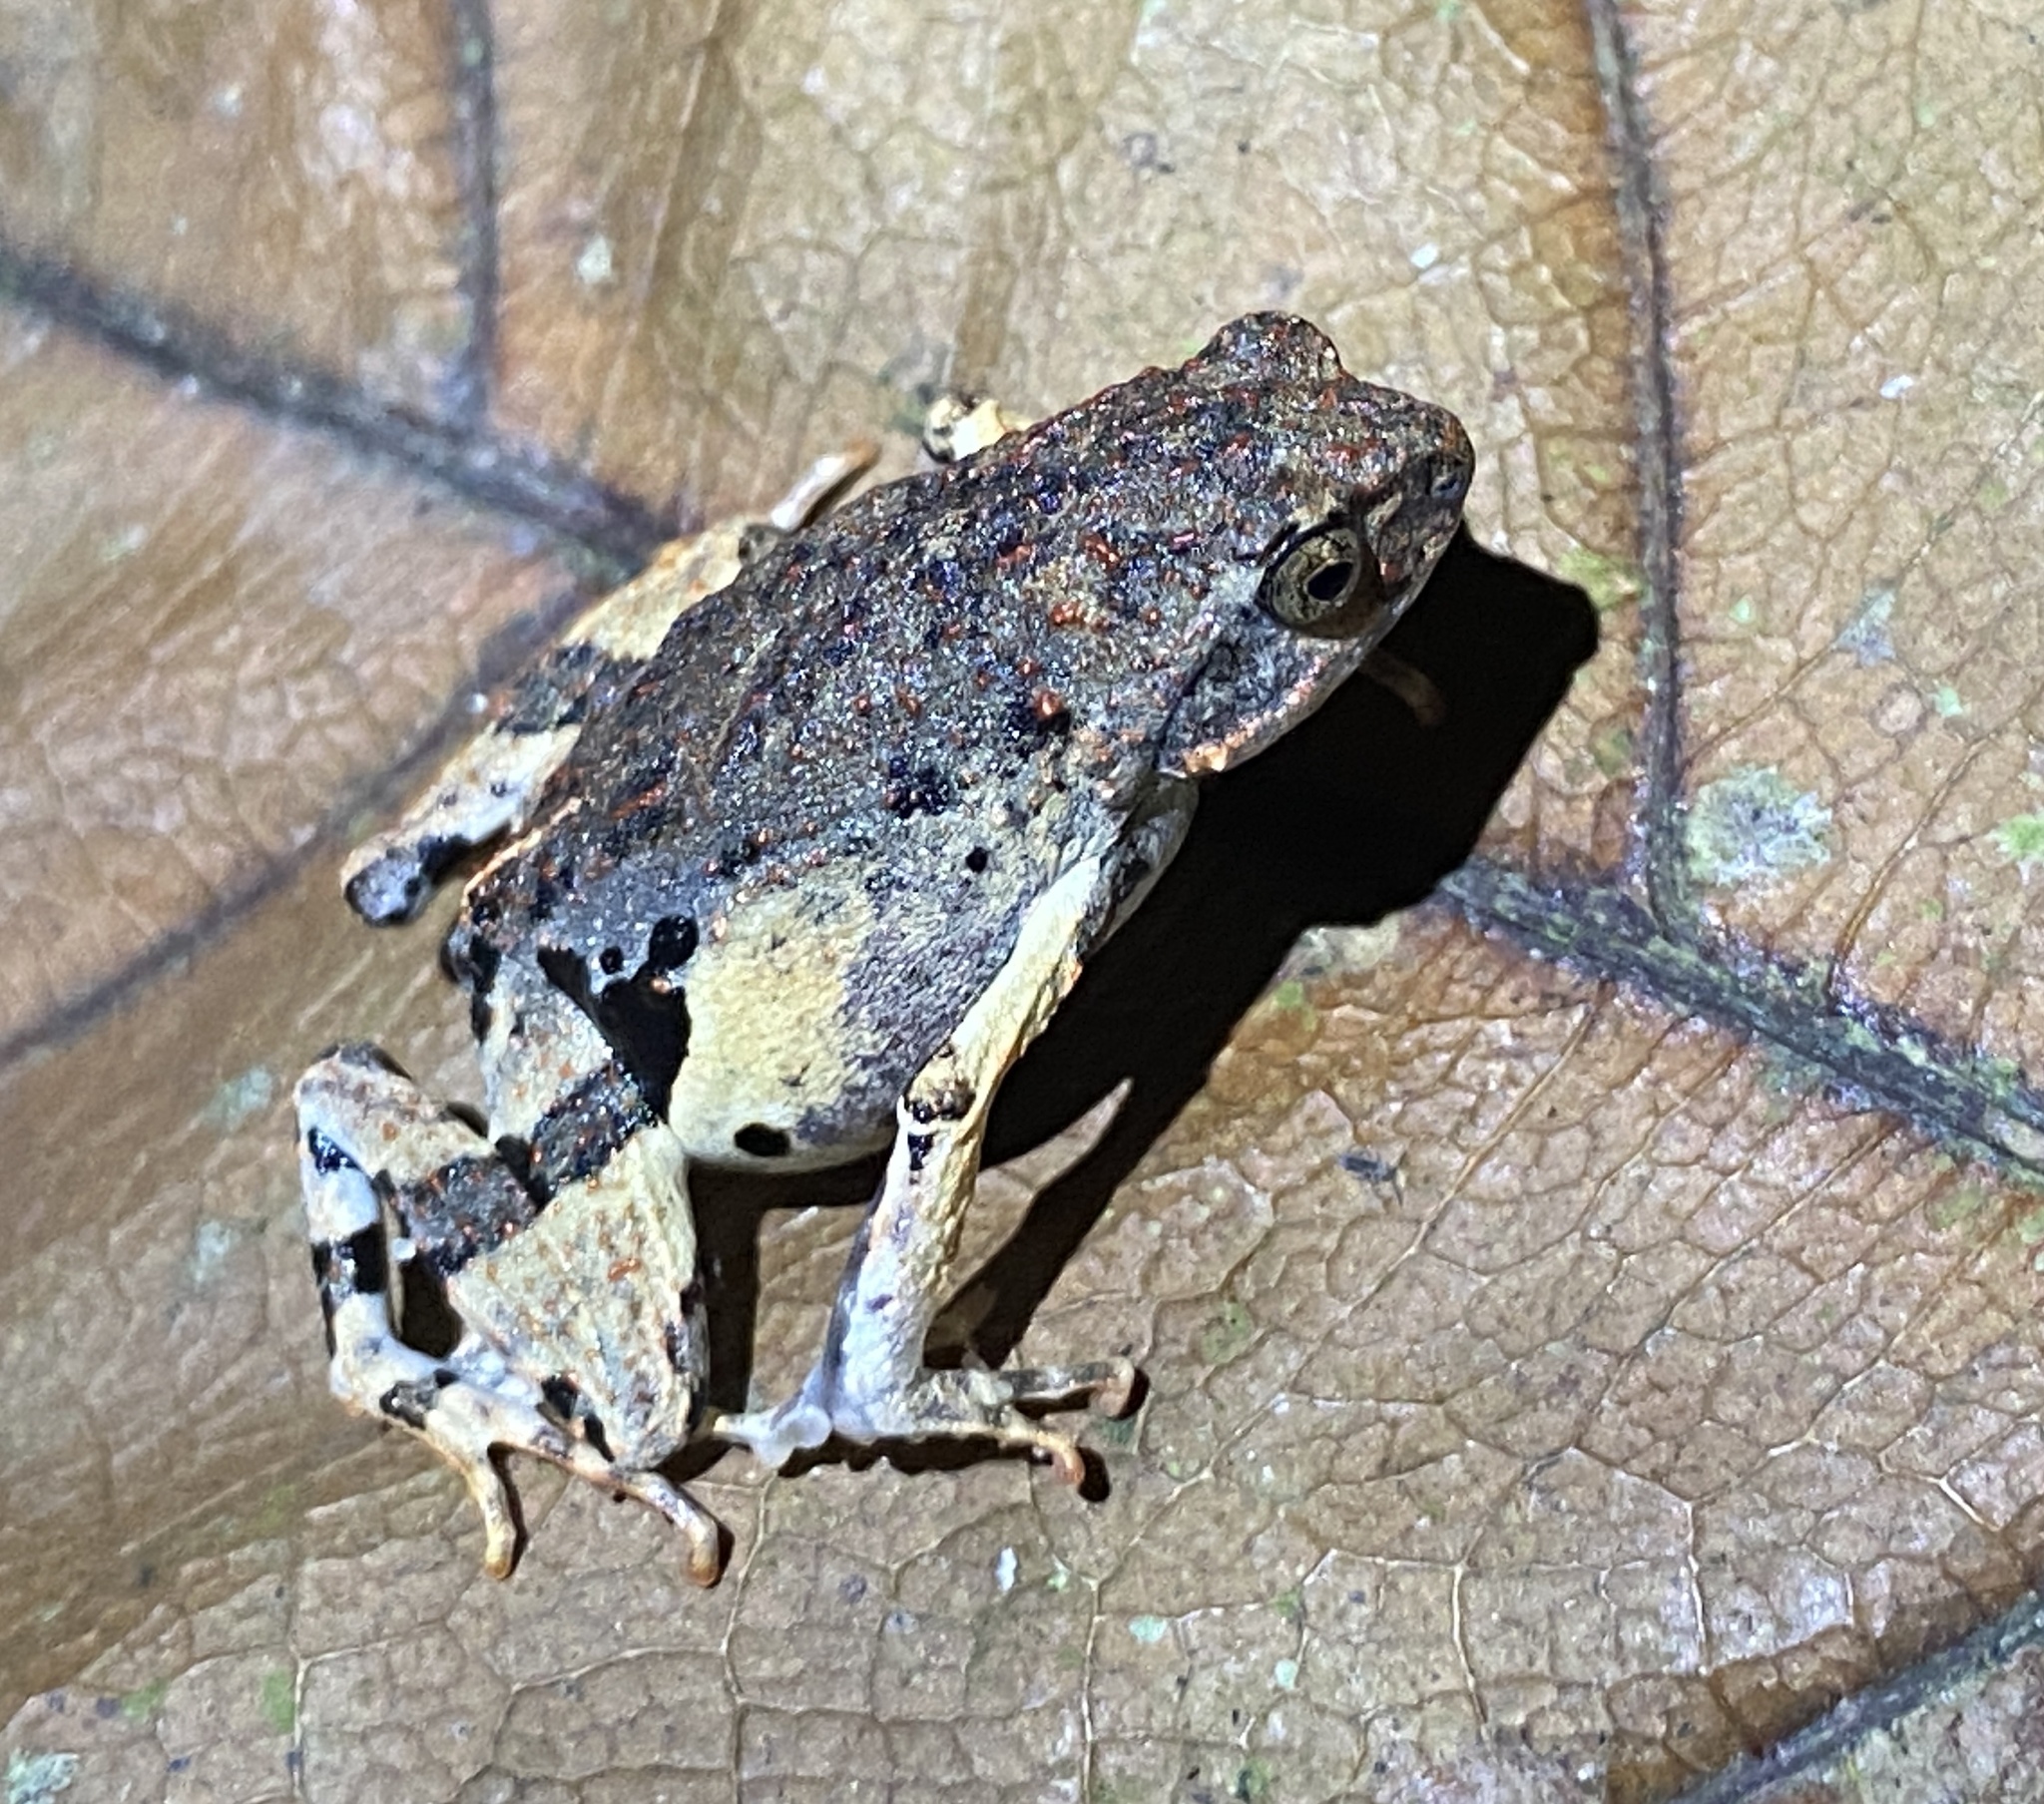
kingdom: Animalia
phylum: Chordata
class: Amphibia
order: Anura
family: Leptodactylidae
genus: Engystomops
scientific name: Engystomops petersi
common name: Peters’ dwarf frog
